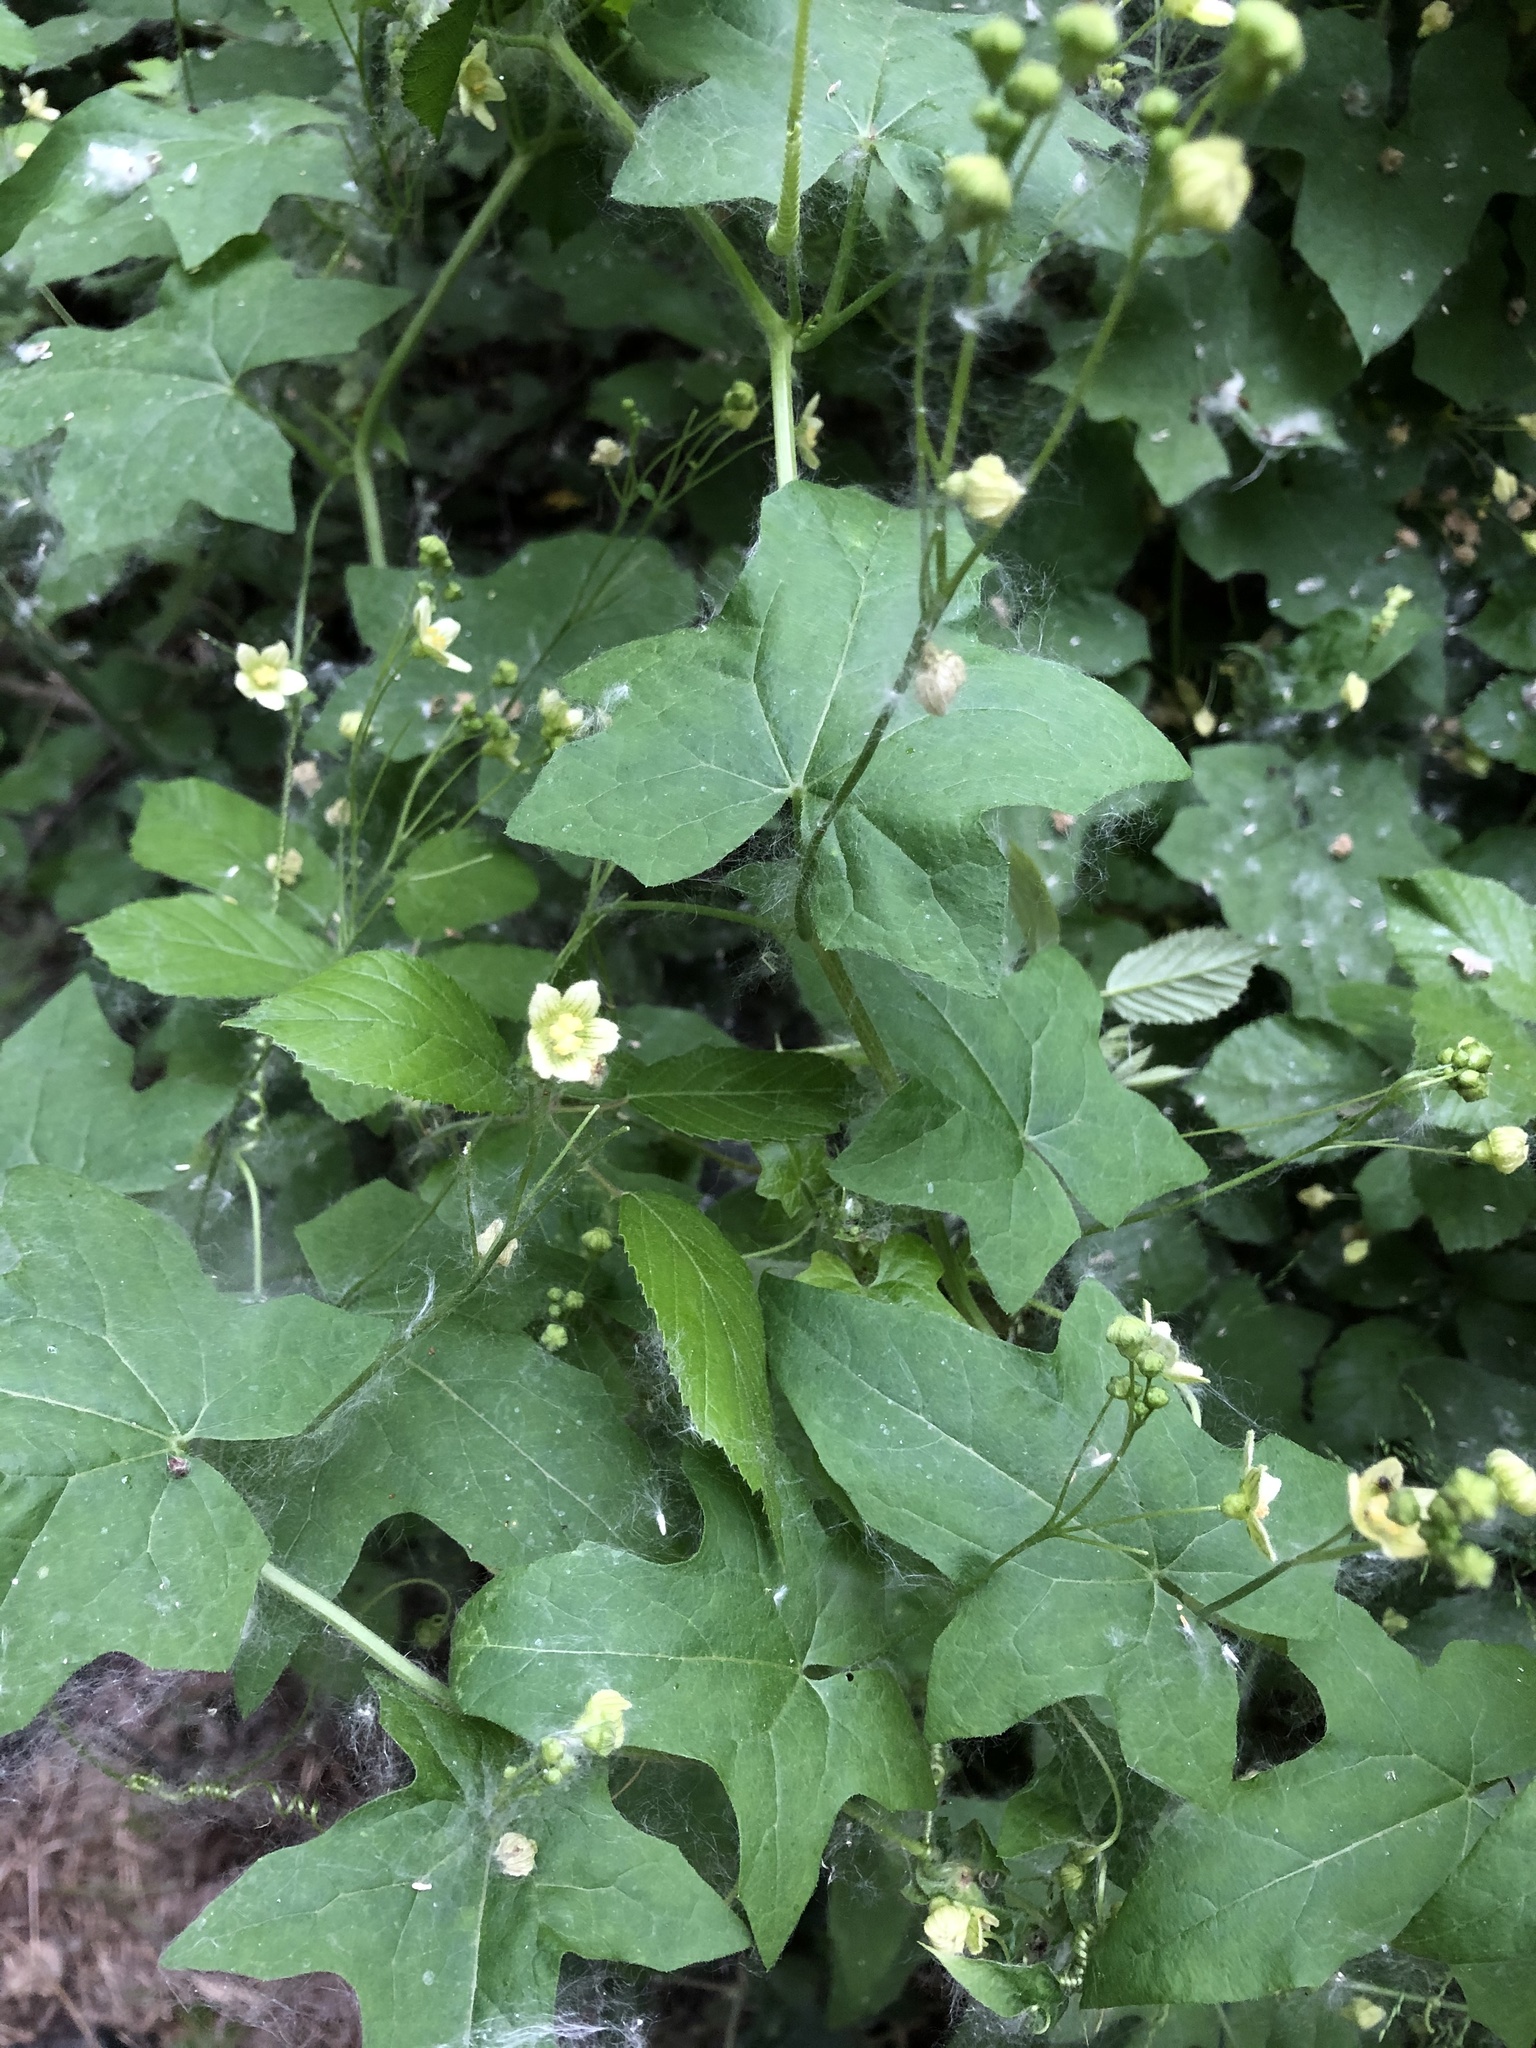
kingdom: Plantae
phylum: Tracheophyta
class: Magnoliopsida
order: Cucurbitales
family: Cucurbitaceae
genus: Bryonia
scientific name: Bryonia dioica
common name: White bryony
